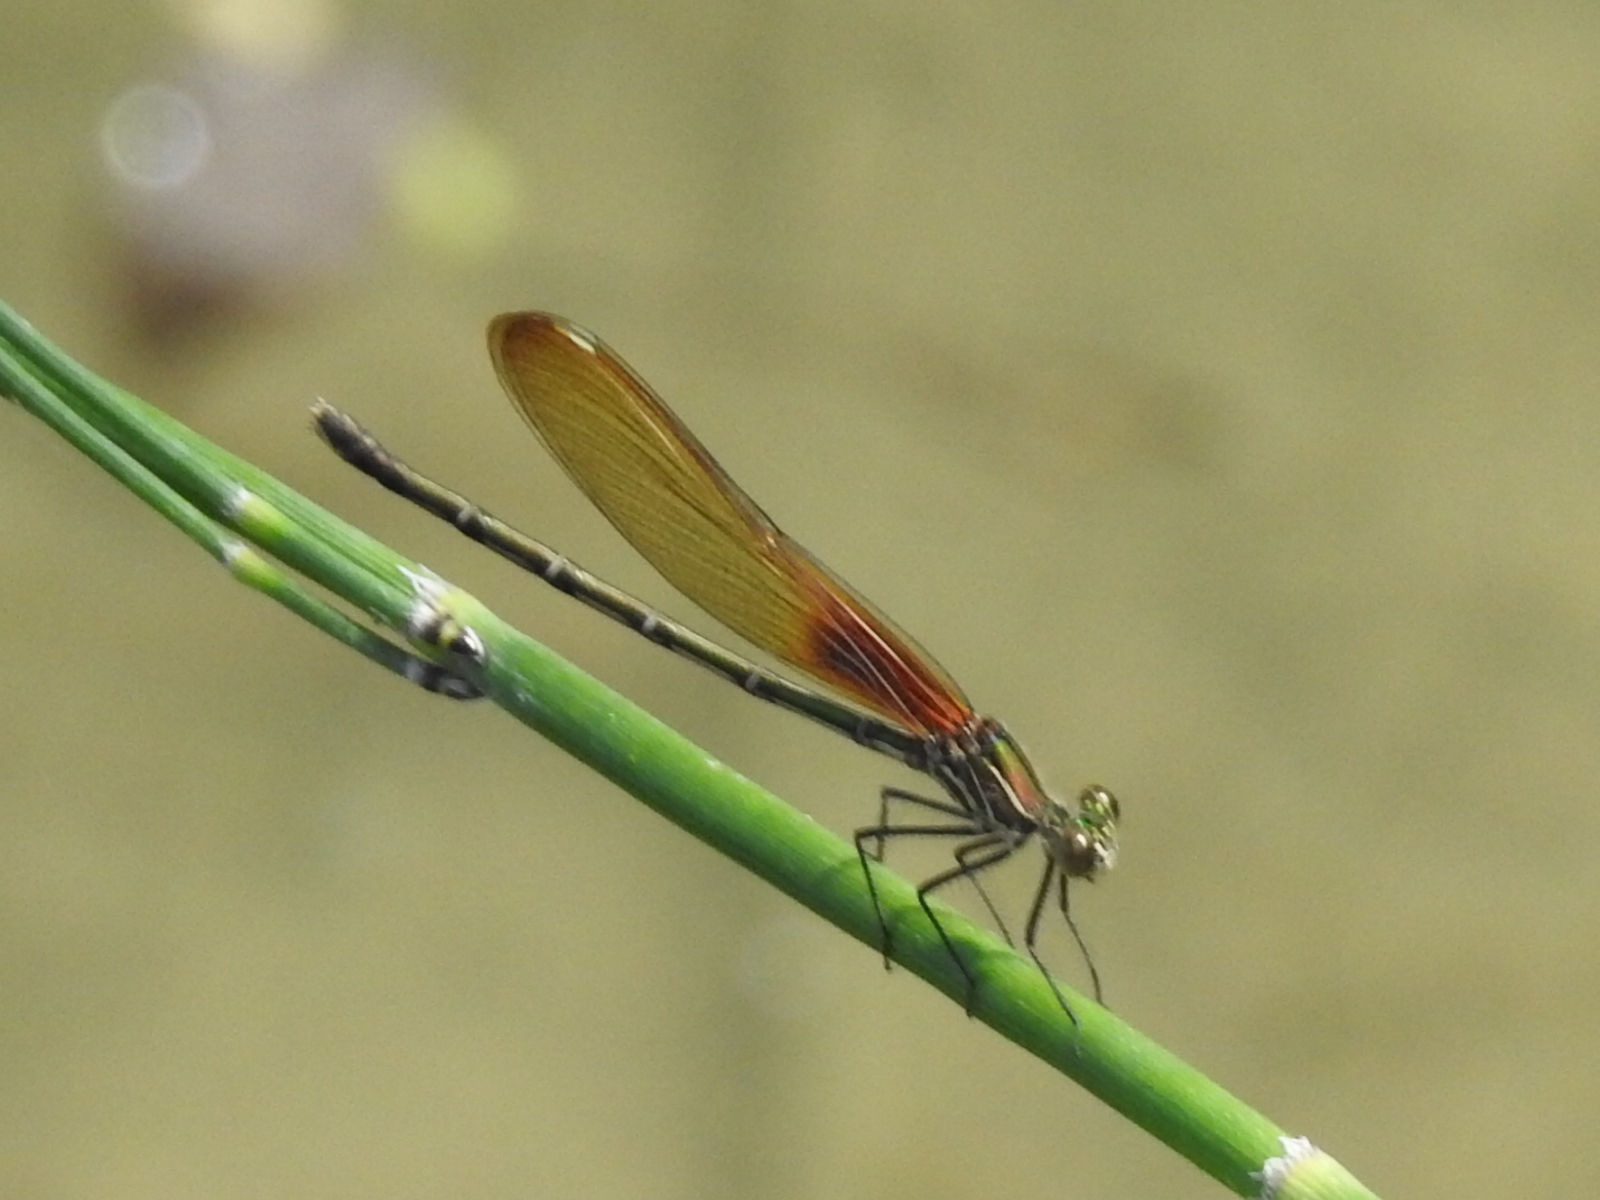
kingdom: Animalia
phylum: Arthropoda
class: Insecta
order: Odonata
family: Calopterygidae
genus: Hetaerina
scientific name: Hetaerina americana
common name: American rubyspot
